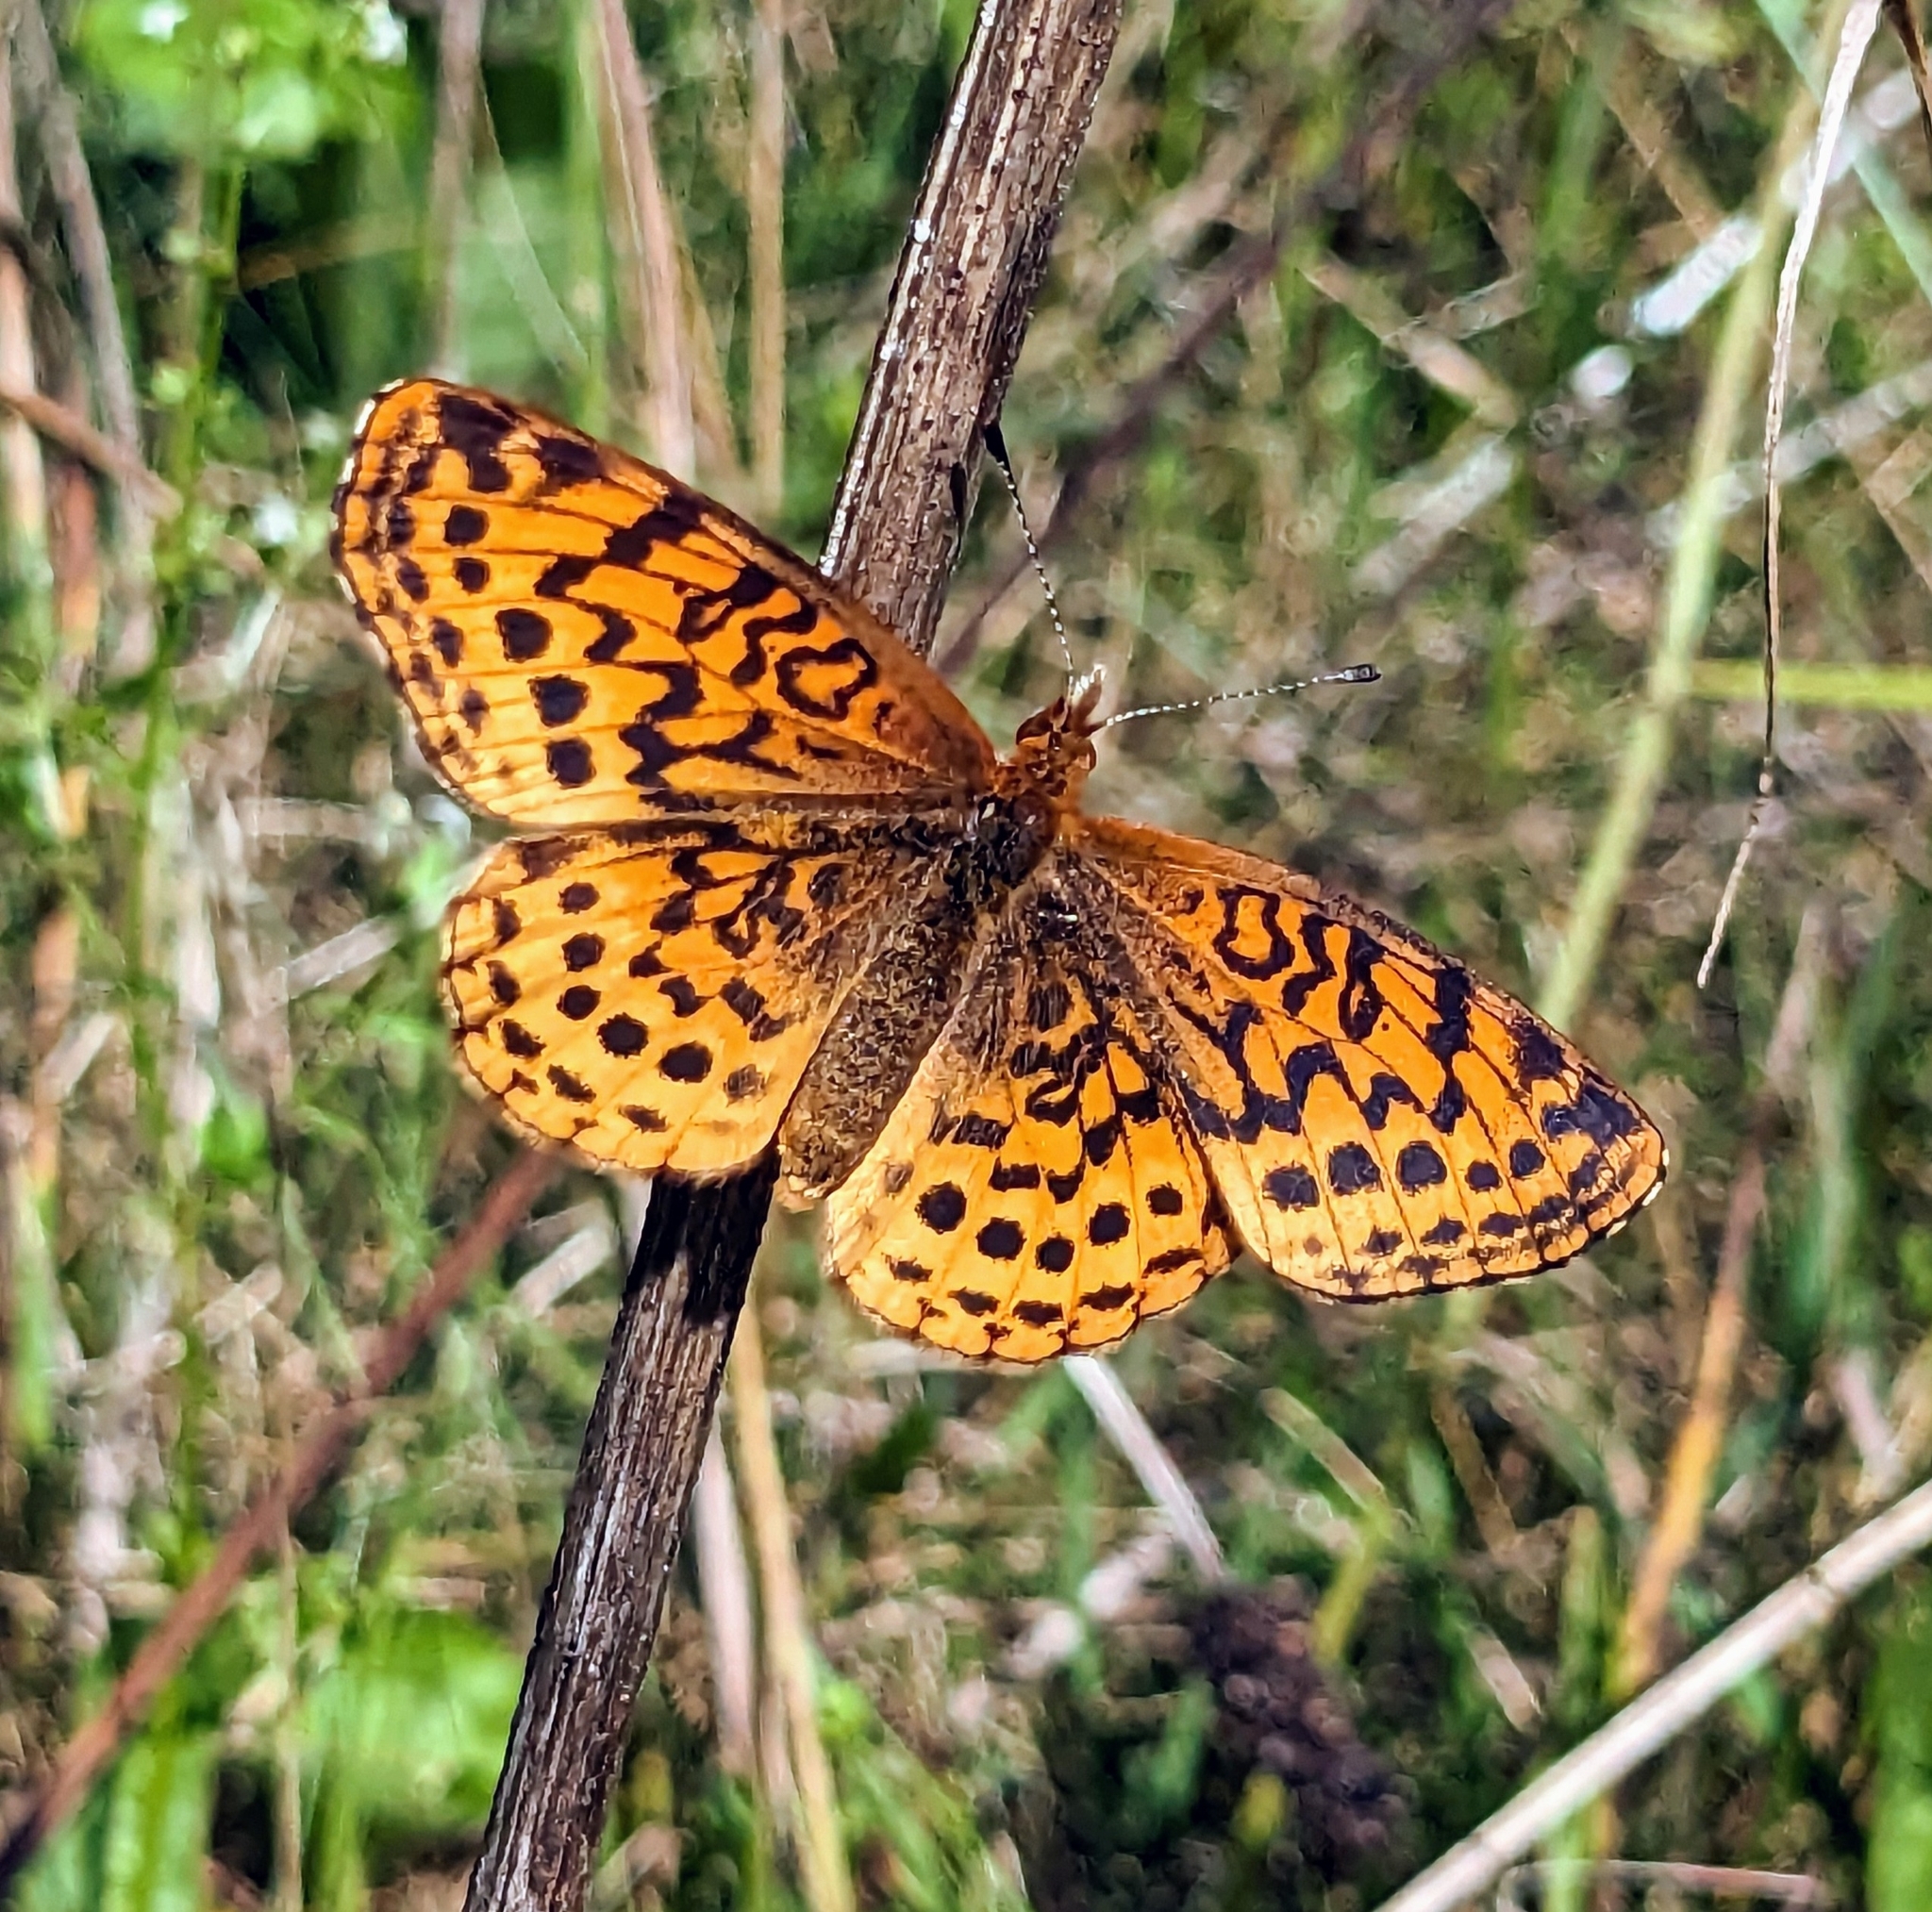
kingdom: Animalia
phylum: Arthropoda
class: Insecta
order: Lepidoptera
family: Nymphalidae
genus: Clossiana
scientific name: Clossiana toddi
